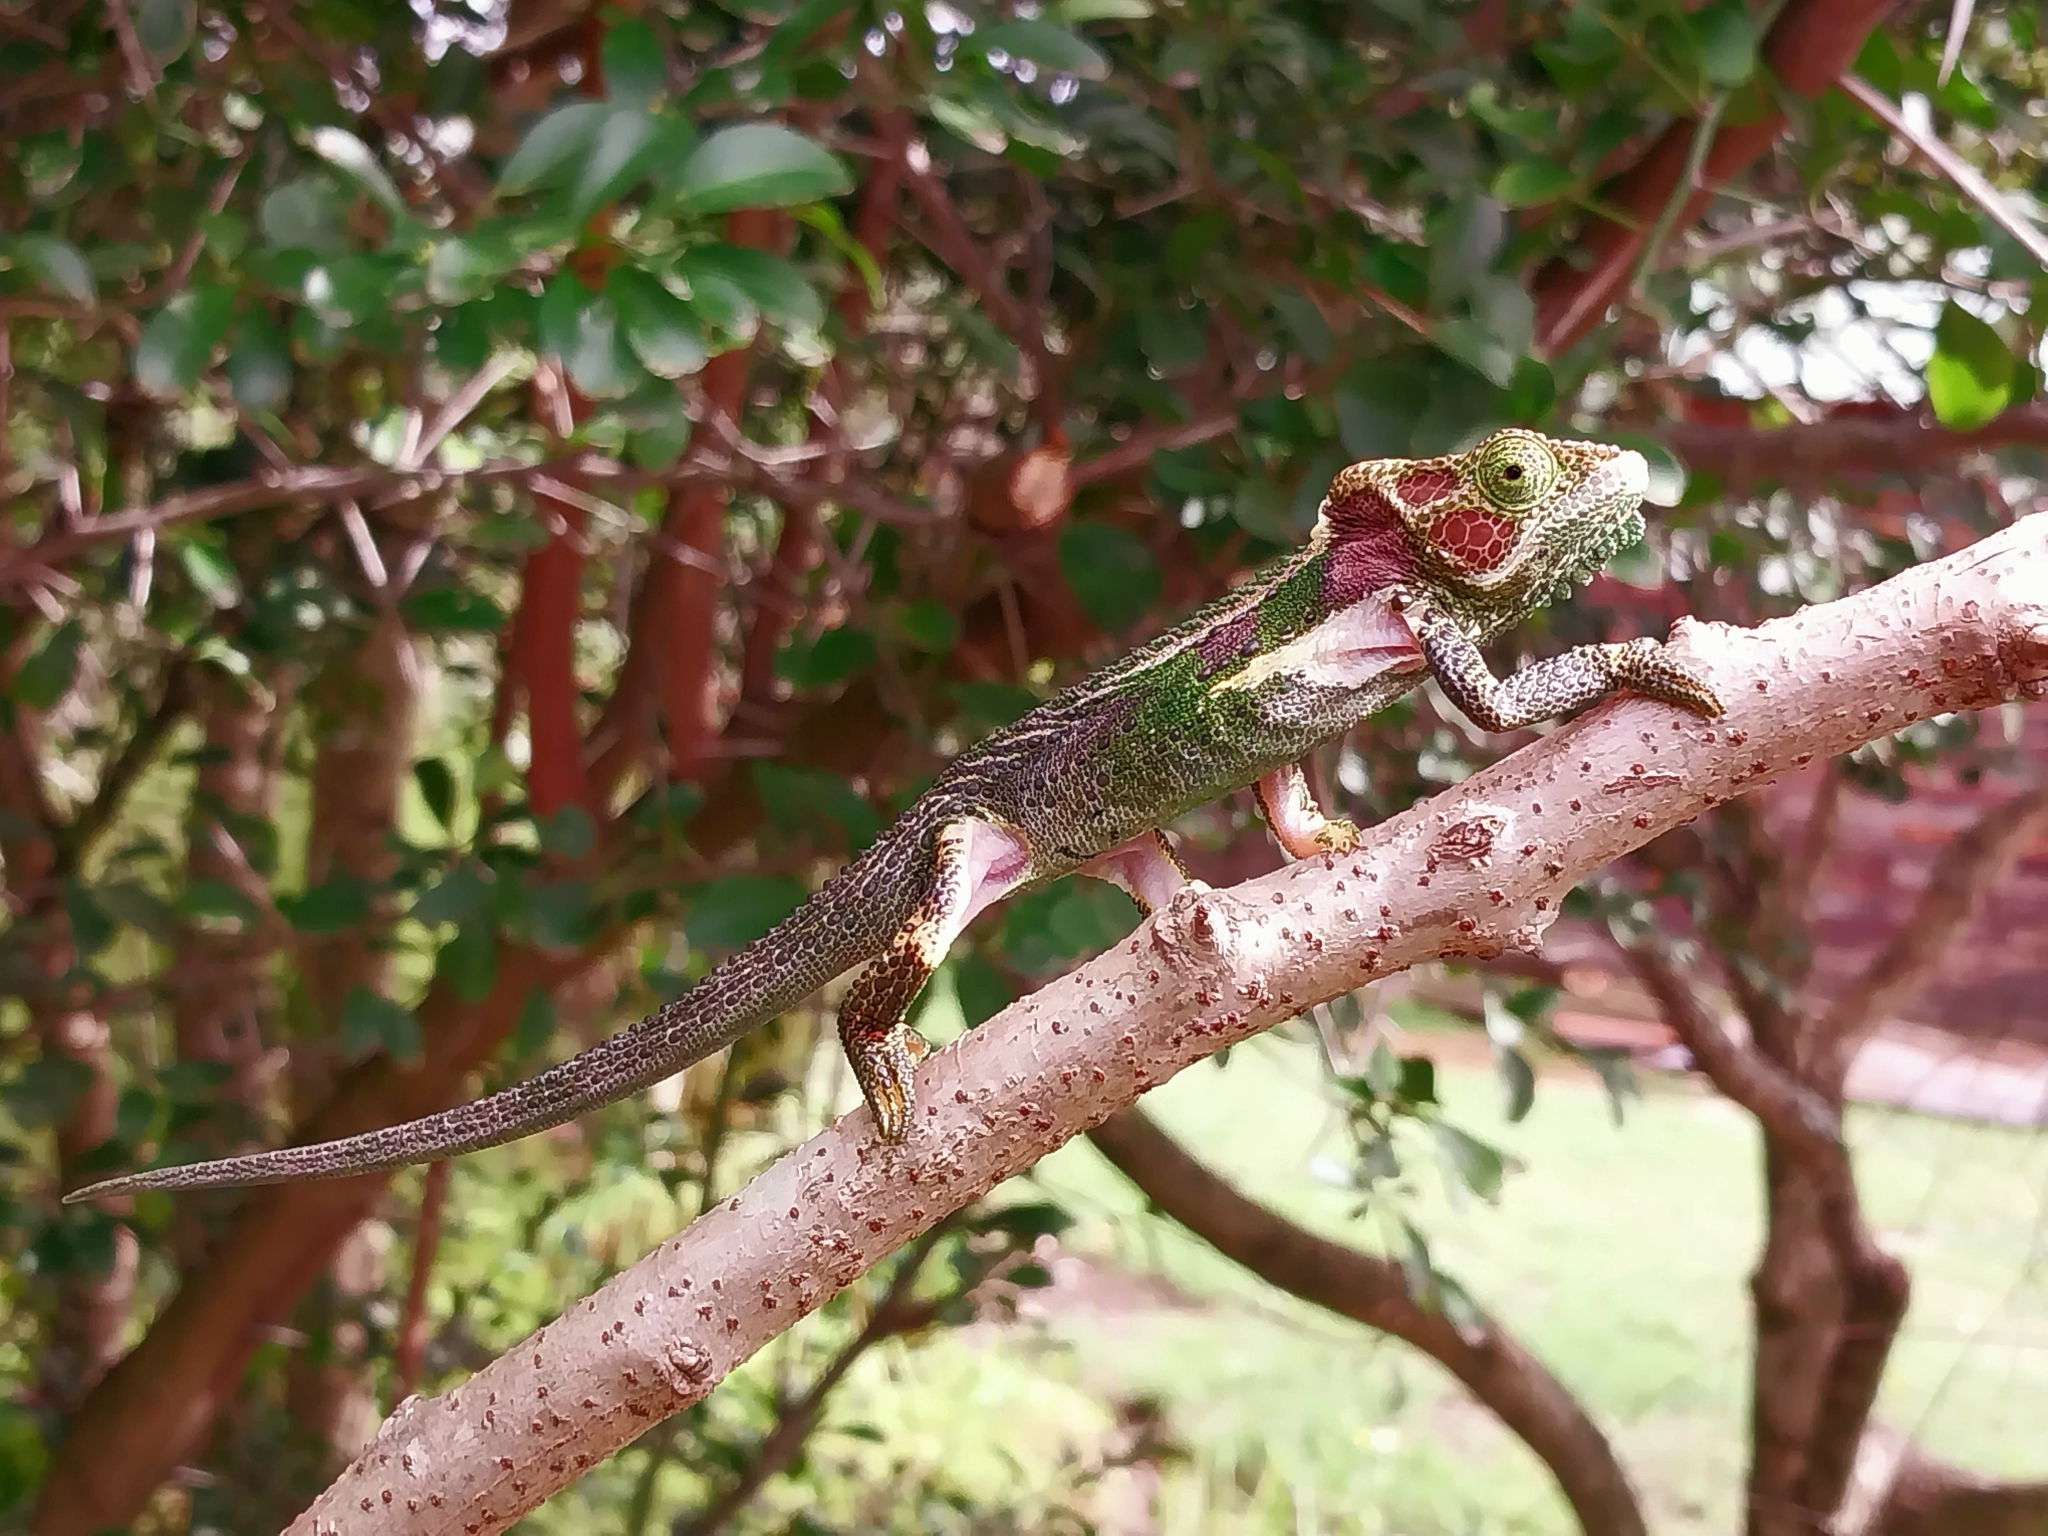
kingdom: Animalia
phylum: Chordata
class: Squamata
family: Chamaeleonidae
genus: Bradypodion
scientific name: Bradypodion damaranum
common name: Knysna dwarf chameleon
